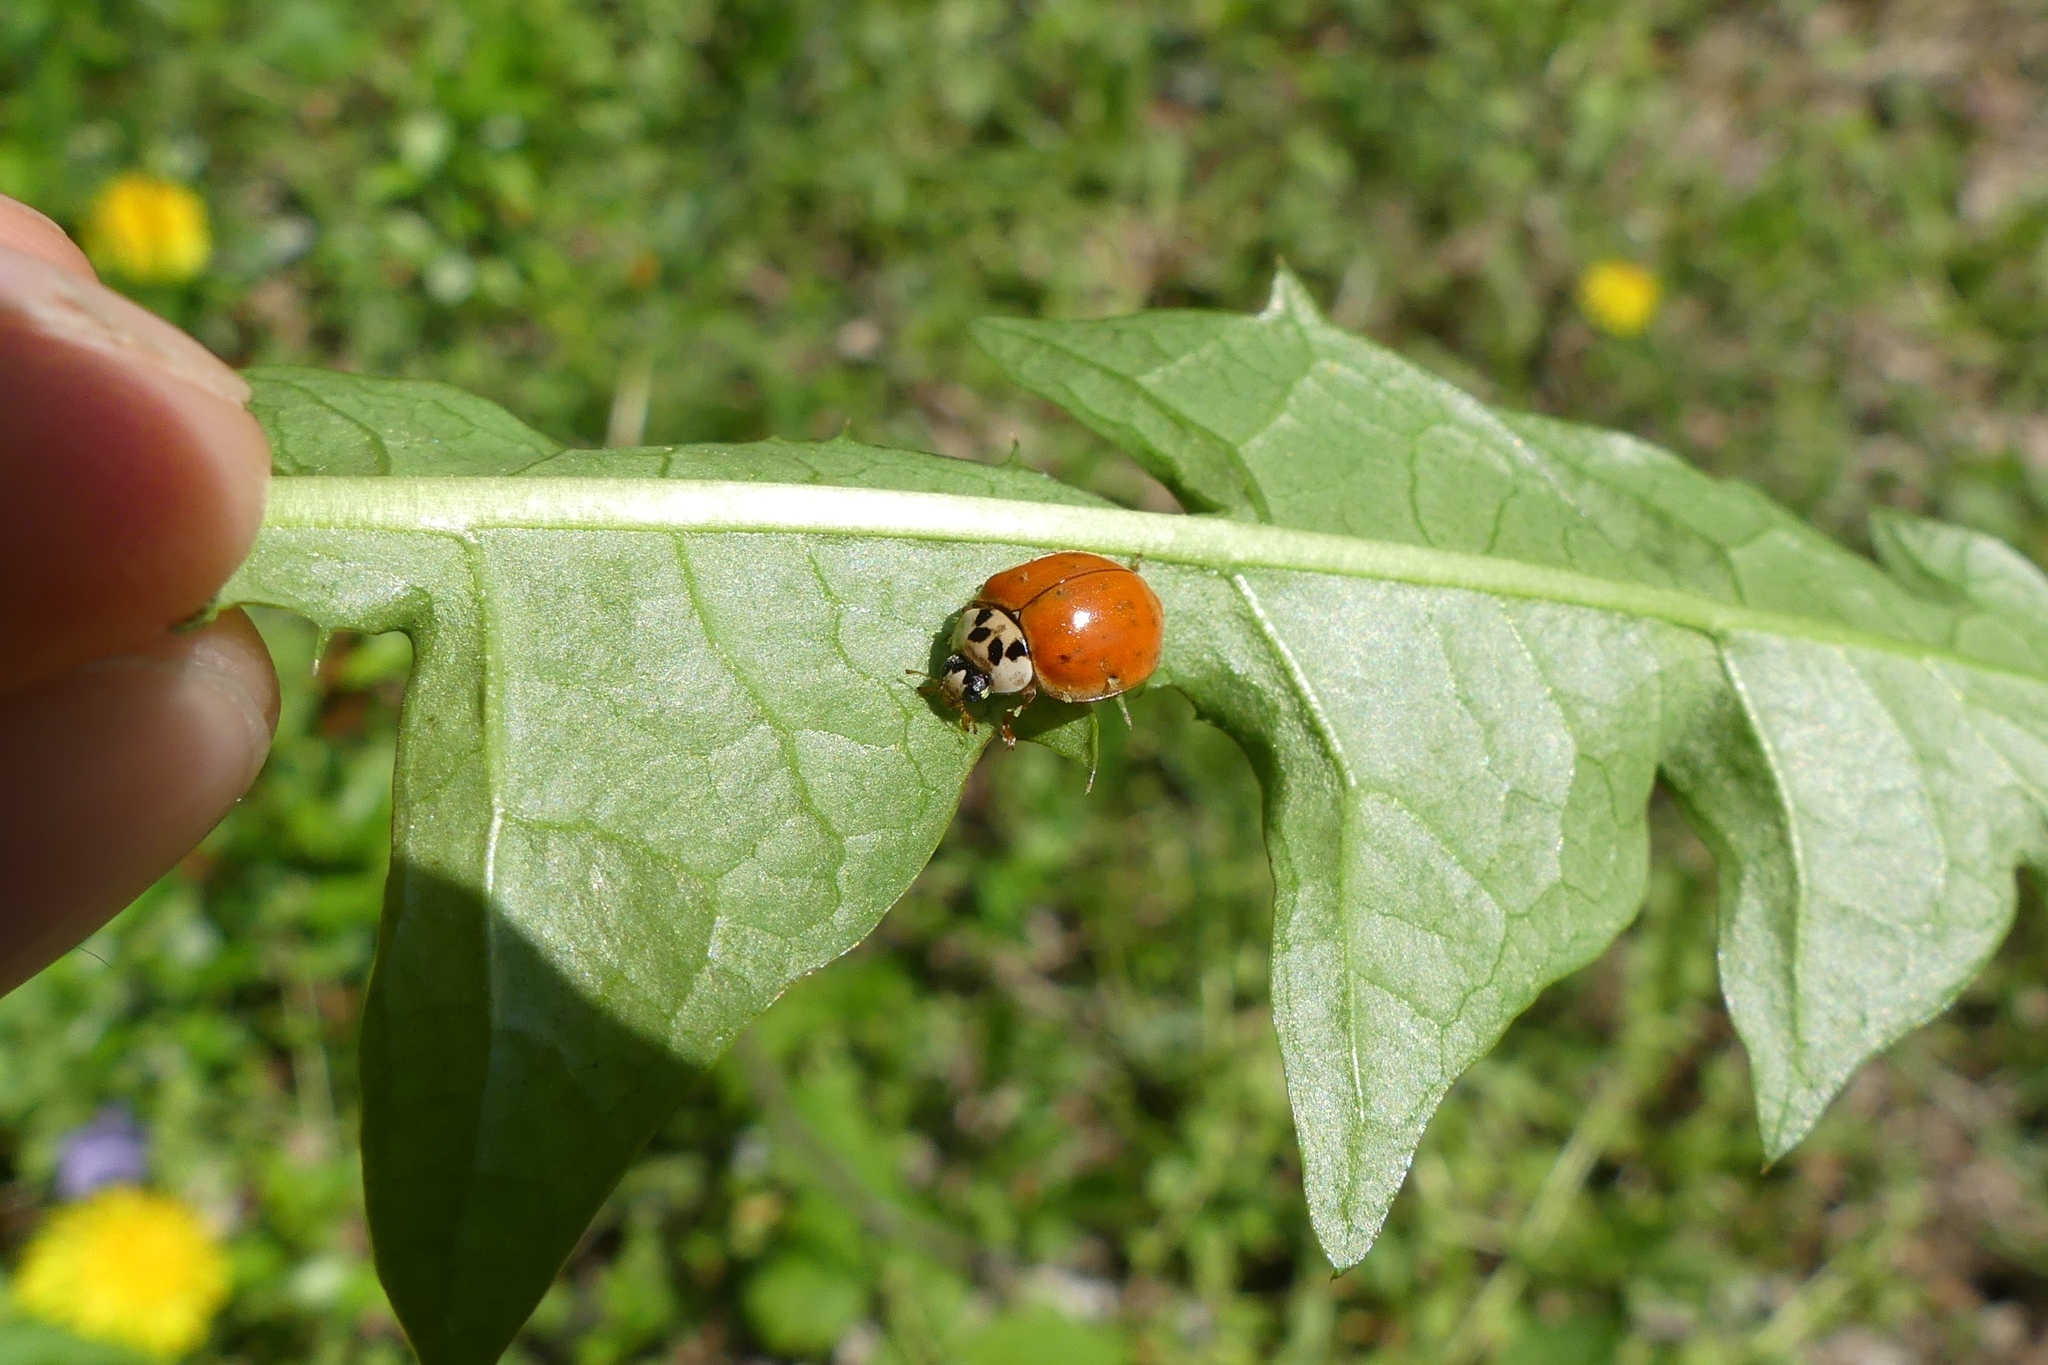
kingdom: Animalia
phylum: Arthropoda
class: Insecta
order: Coleoptera
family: Coccinellidae
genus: Harmonia
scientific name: Harmonia axyridis
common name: Harlequin ladybird
